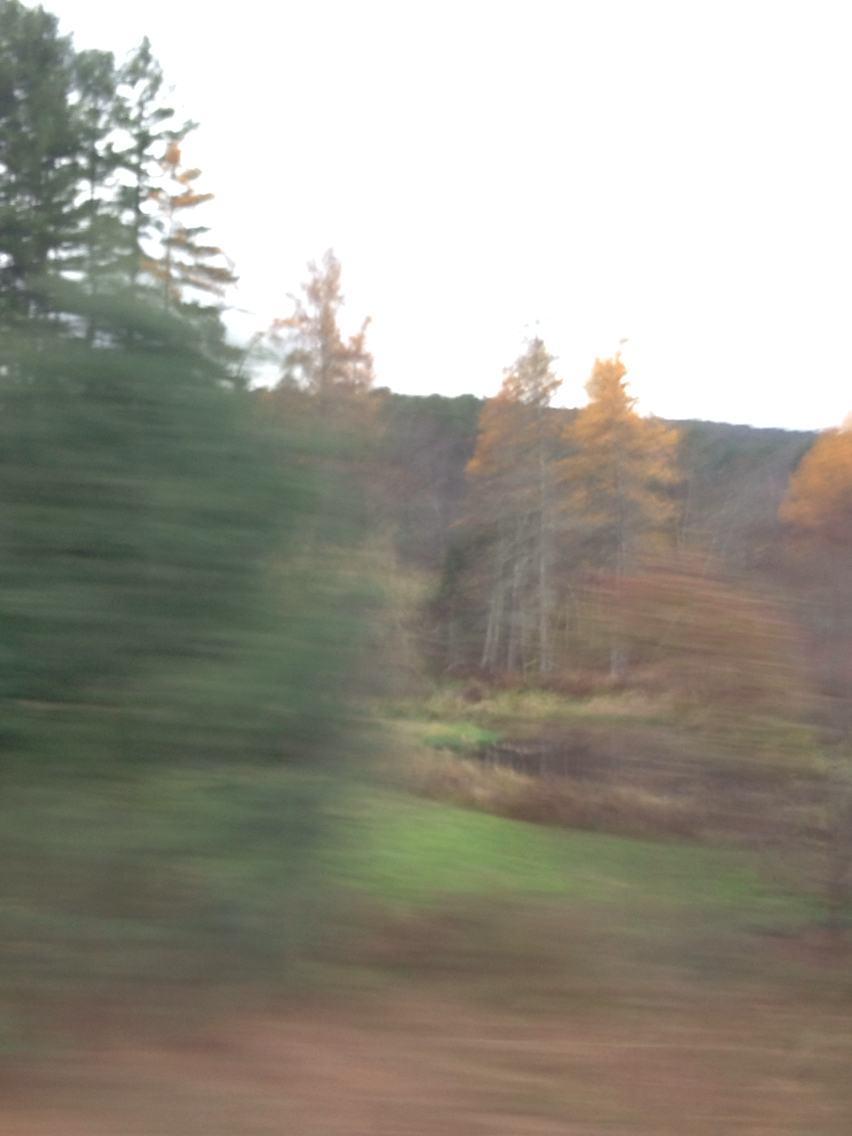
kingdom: Plantae
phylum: Tracheophyta
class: Pinopsida
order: Pinales
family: Pinaceae
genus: Larix
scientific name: Larix laricina
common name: American larch
